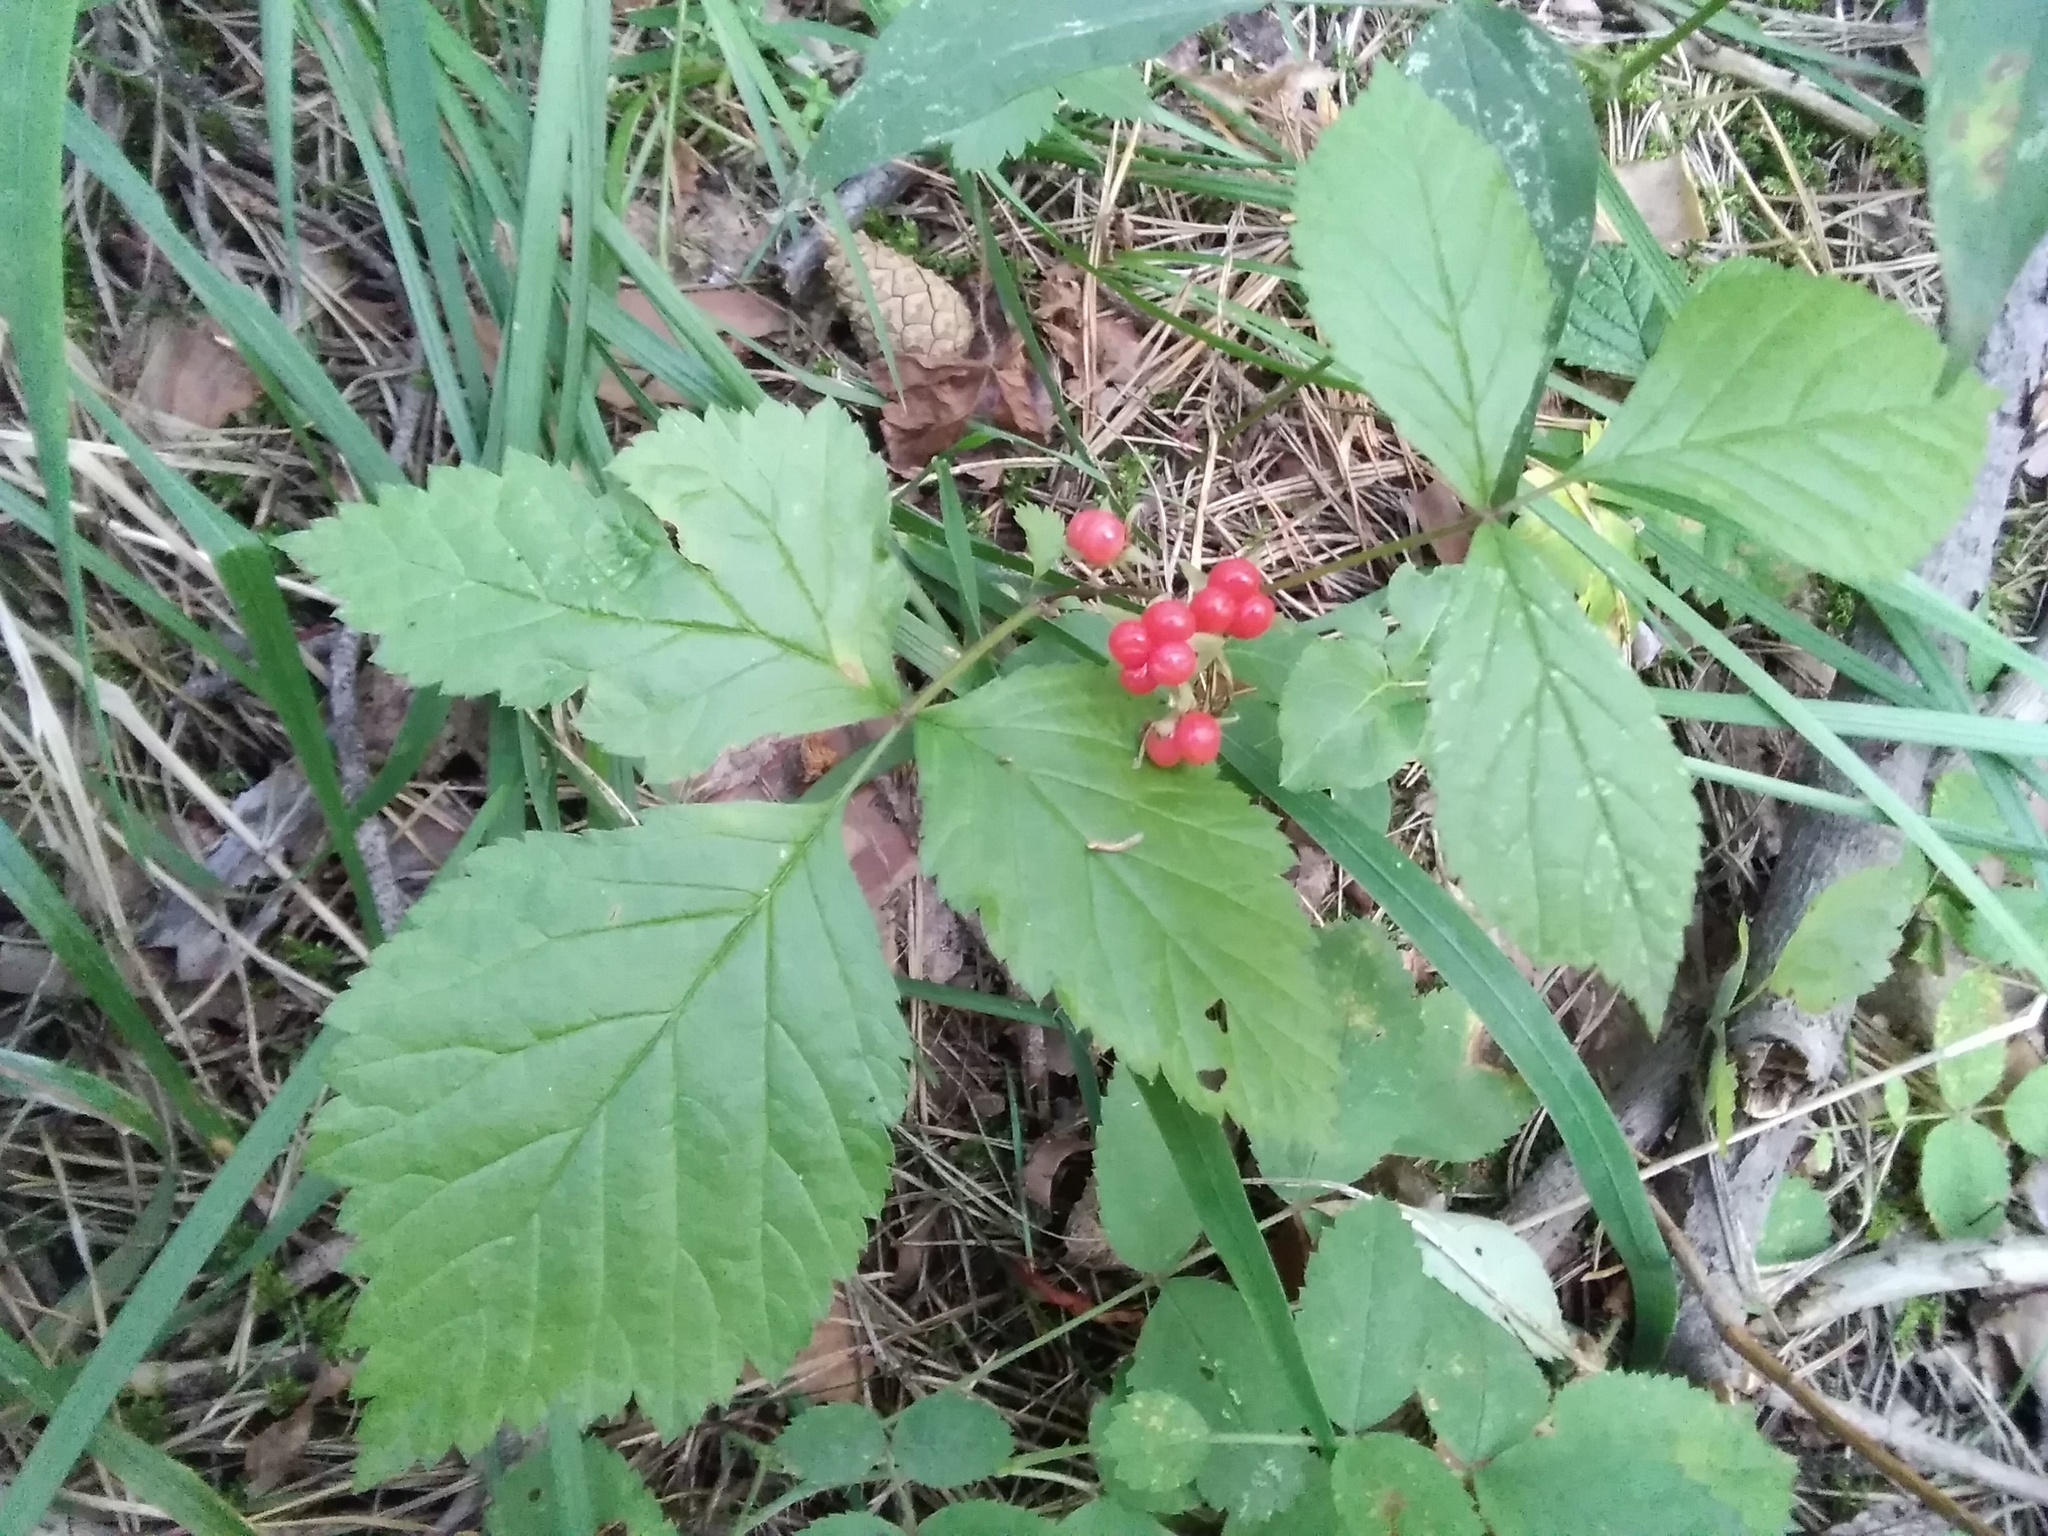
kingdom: Plantae
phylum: Tracheophyta
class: Magnoliopsida
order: Rosales
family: Rosaceae
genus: Rubus
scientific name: Rubus saxatilis
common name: Stone bramble
